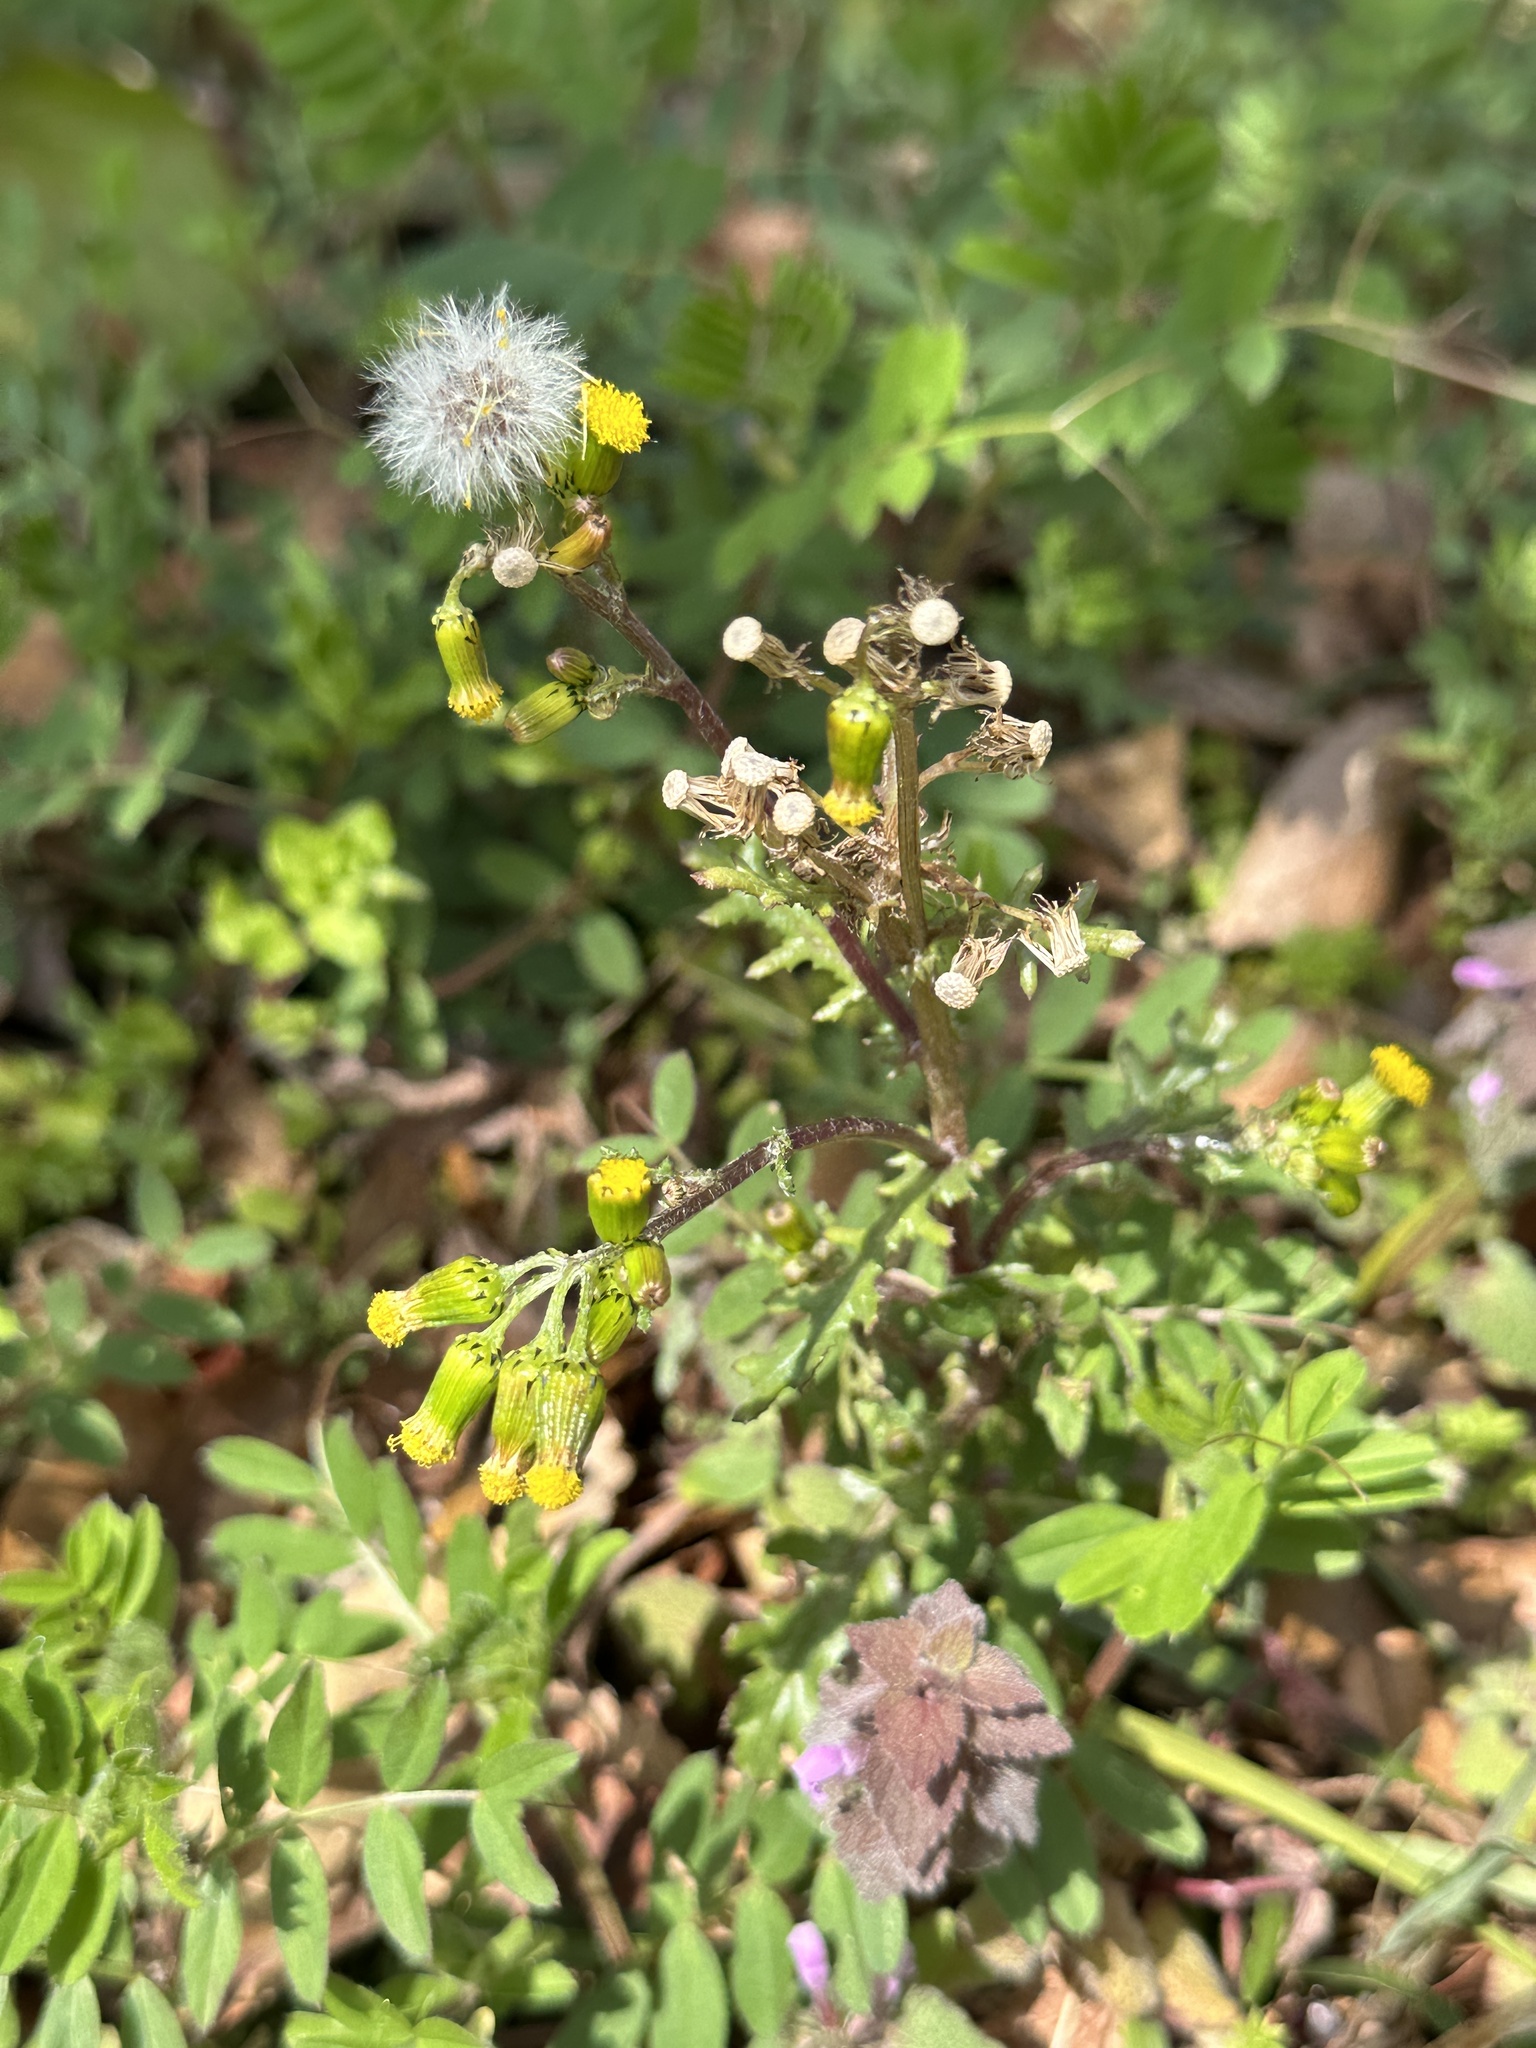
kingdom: Plantae
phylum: Tracheophyta
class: Magnoliopsida
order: Asterales
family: Asteraceae
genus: Senecio
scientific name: Senecio vulgaris
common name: Old-man-in-the-spring
